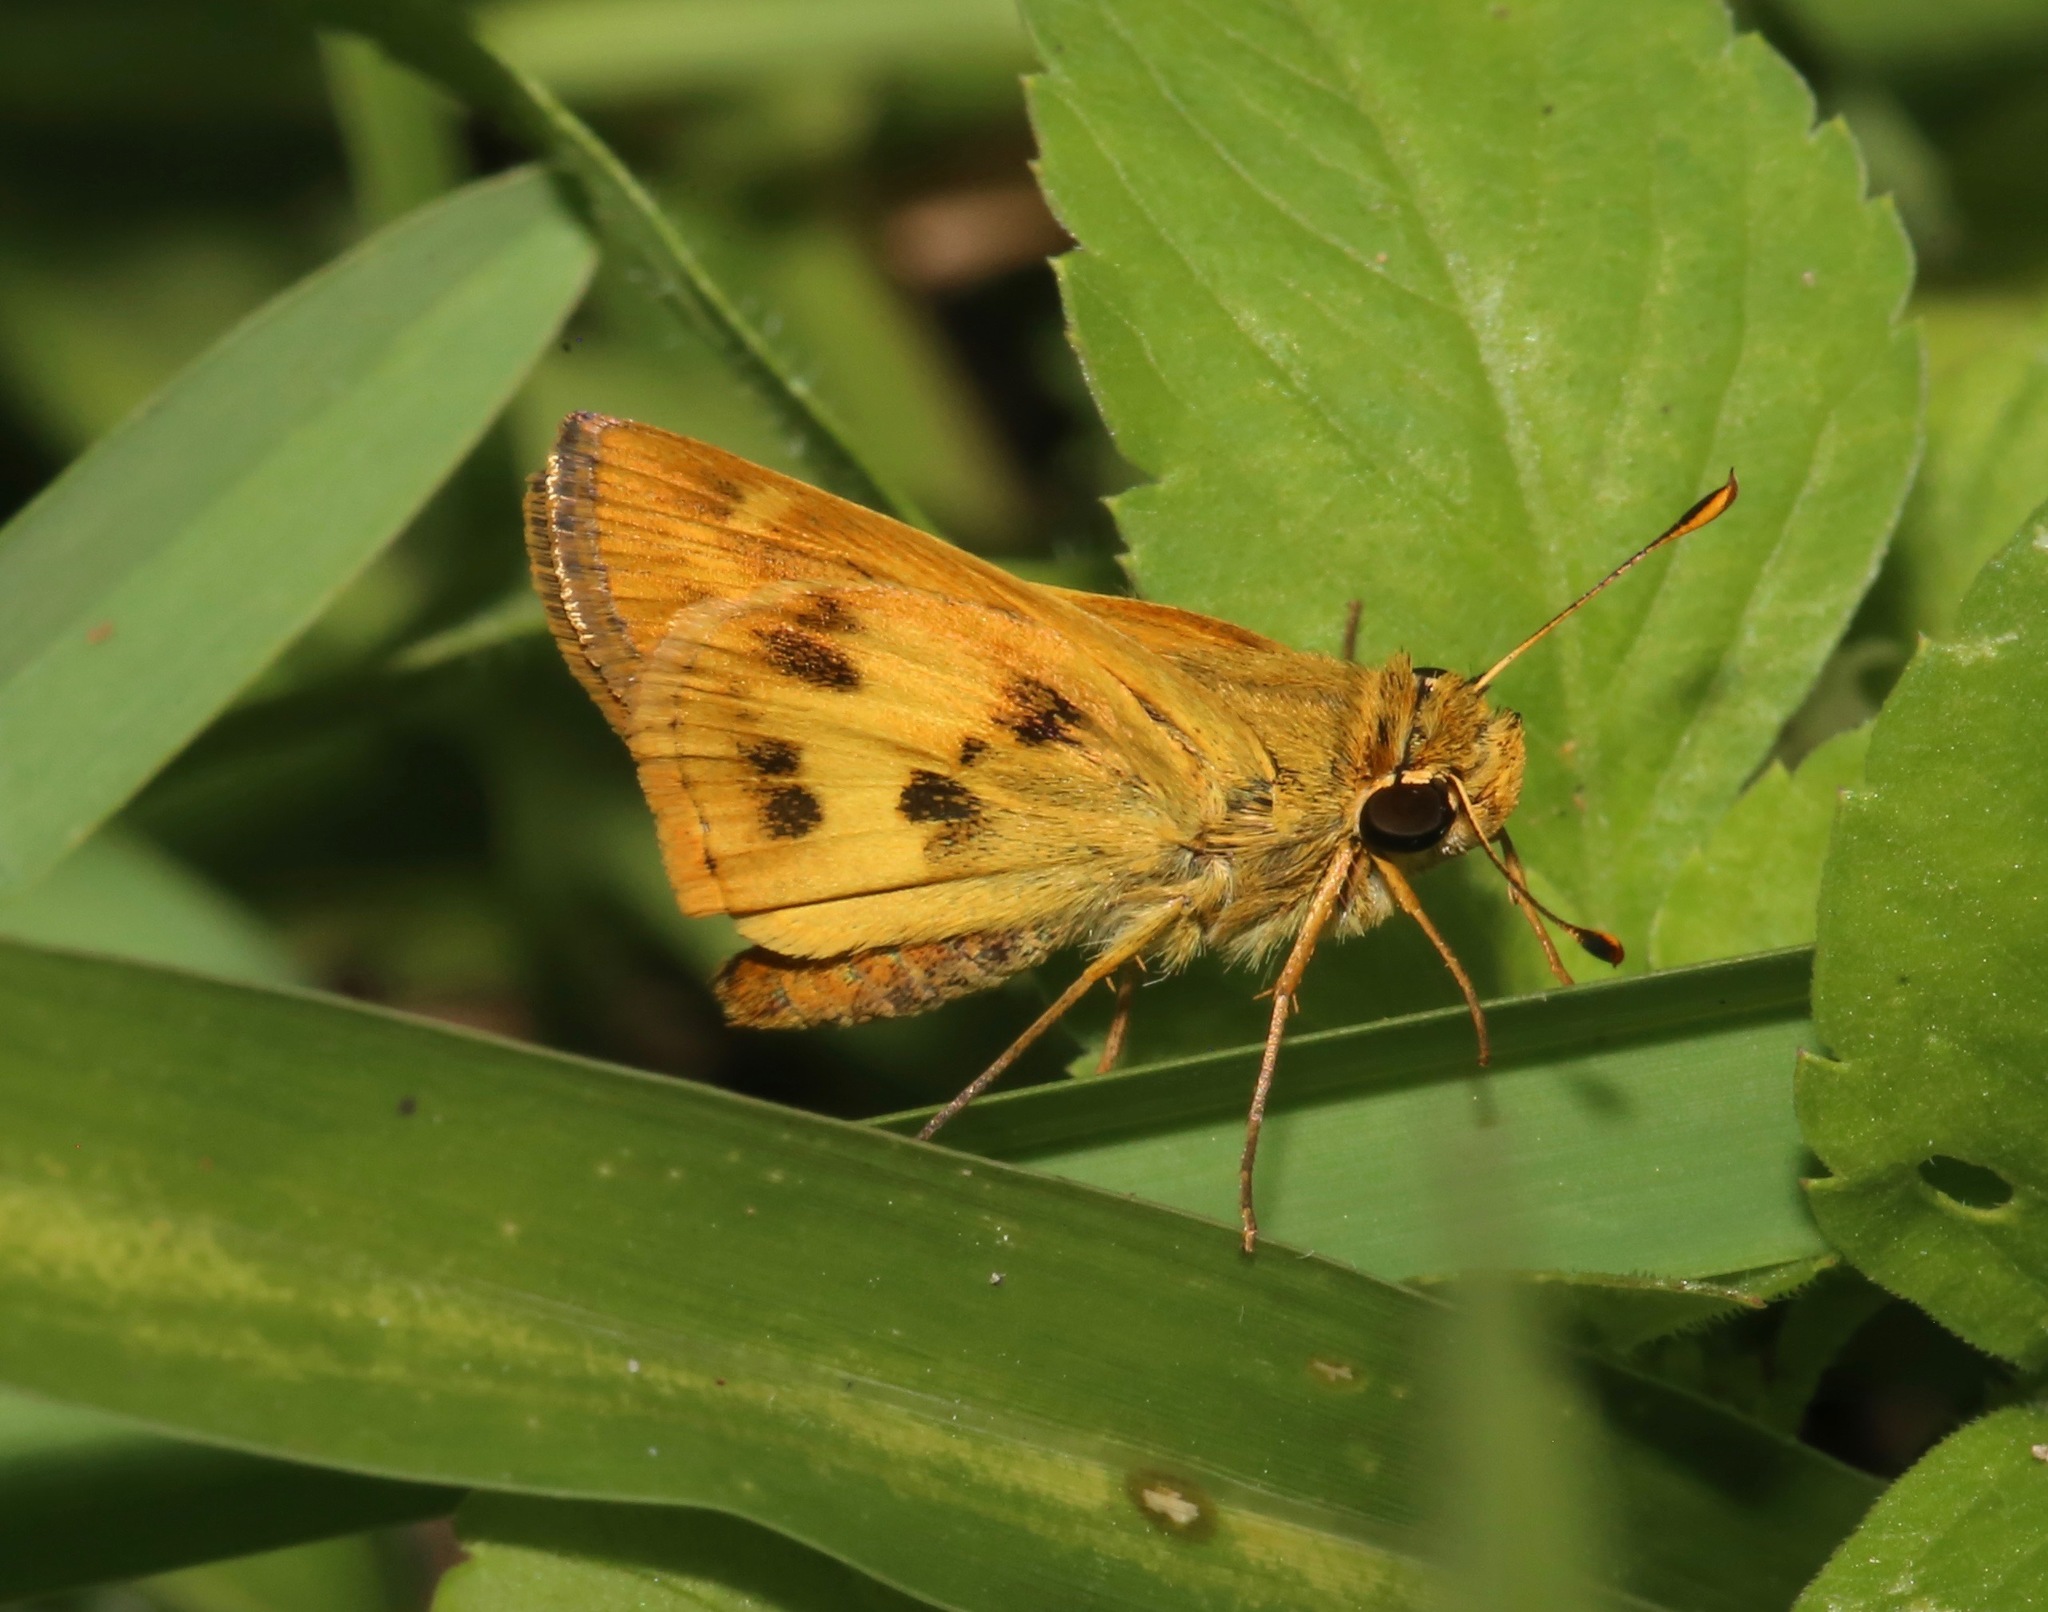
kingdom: Animalia
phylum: Arthropoda
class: Insecta
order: Lepidoptera
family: Hesperiidae
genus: Polites
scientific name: Polites vibex
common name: Whirlabout
